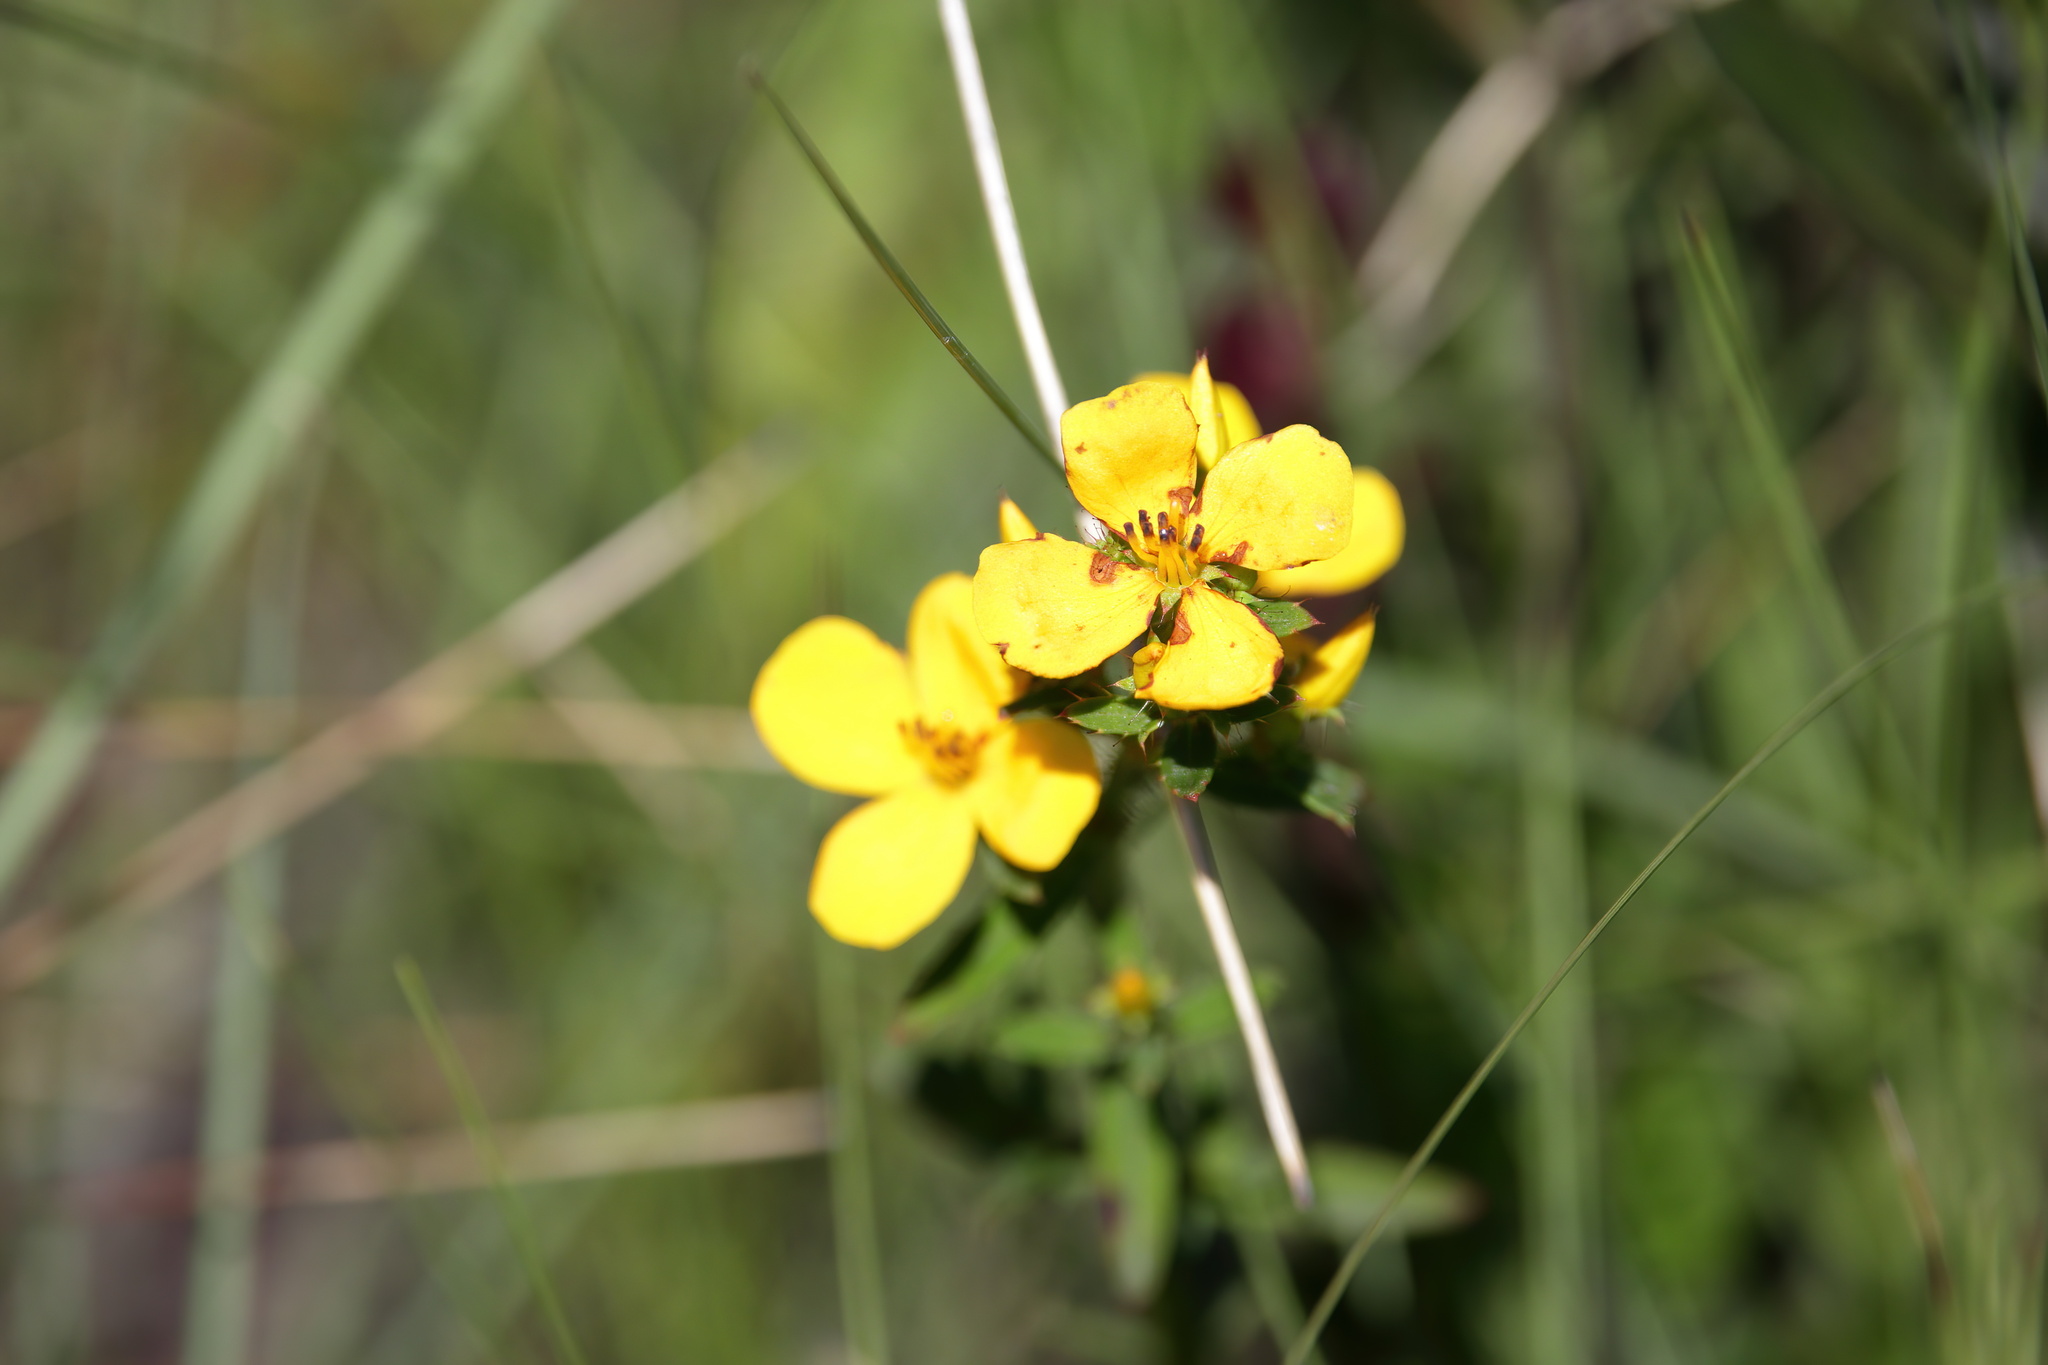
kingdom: Plantae
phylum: Tracheophyta
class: Magnoliopsida
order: Myrtales
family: Melastomataceae
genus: Rhexia
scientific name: Rhexia lutea
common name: Golden meadow-beauty
